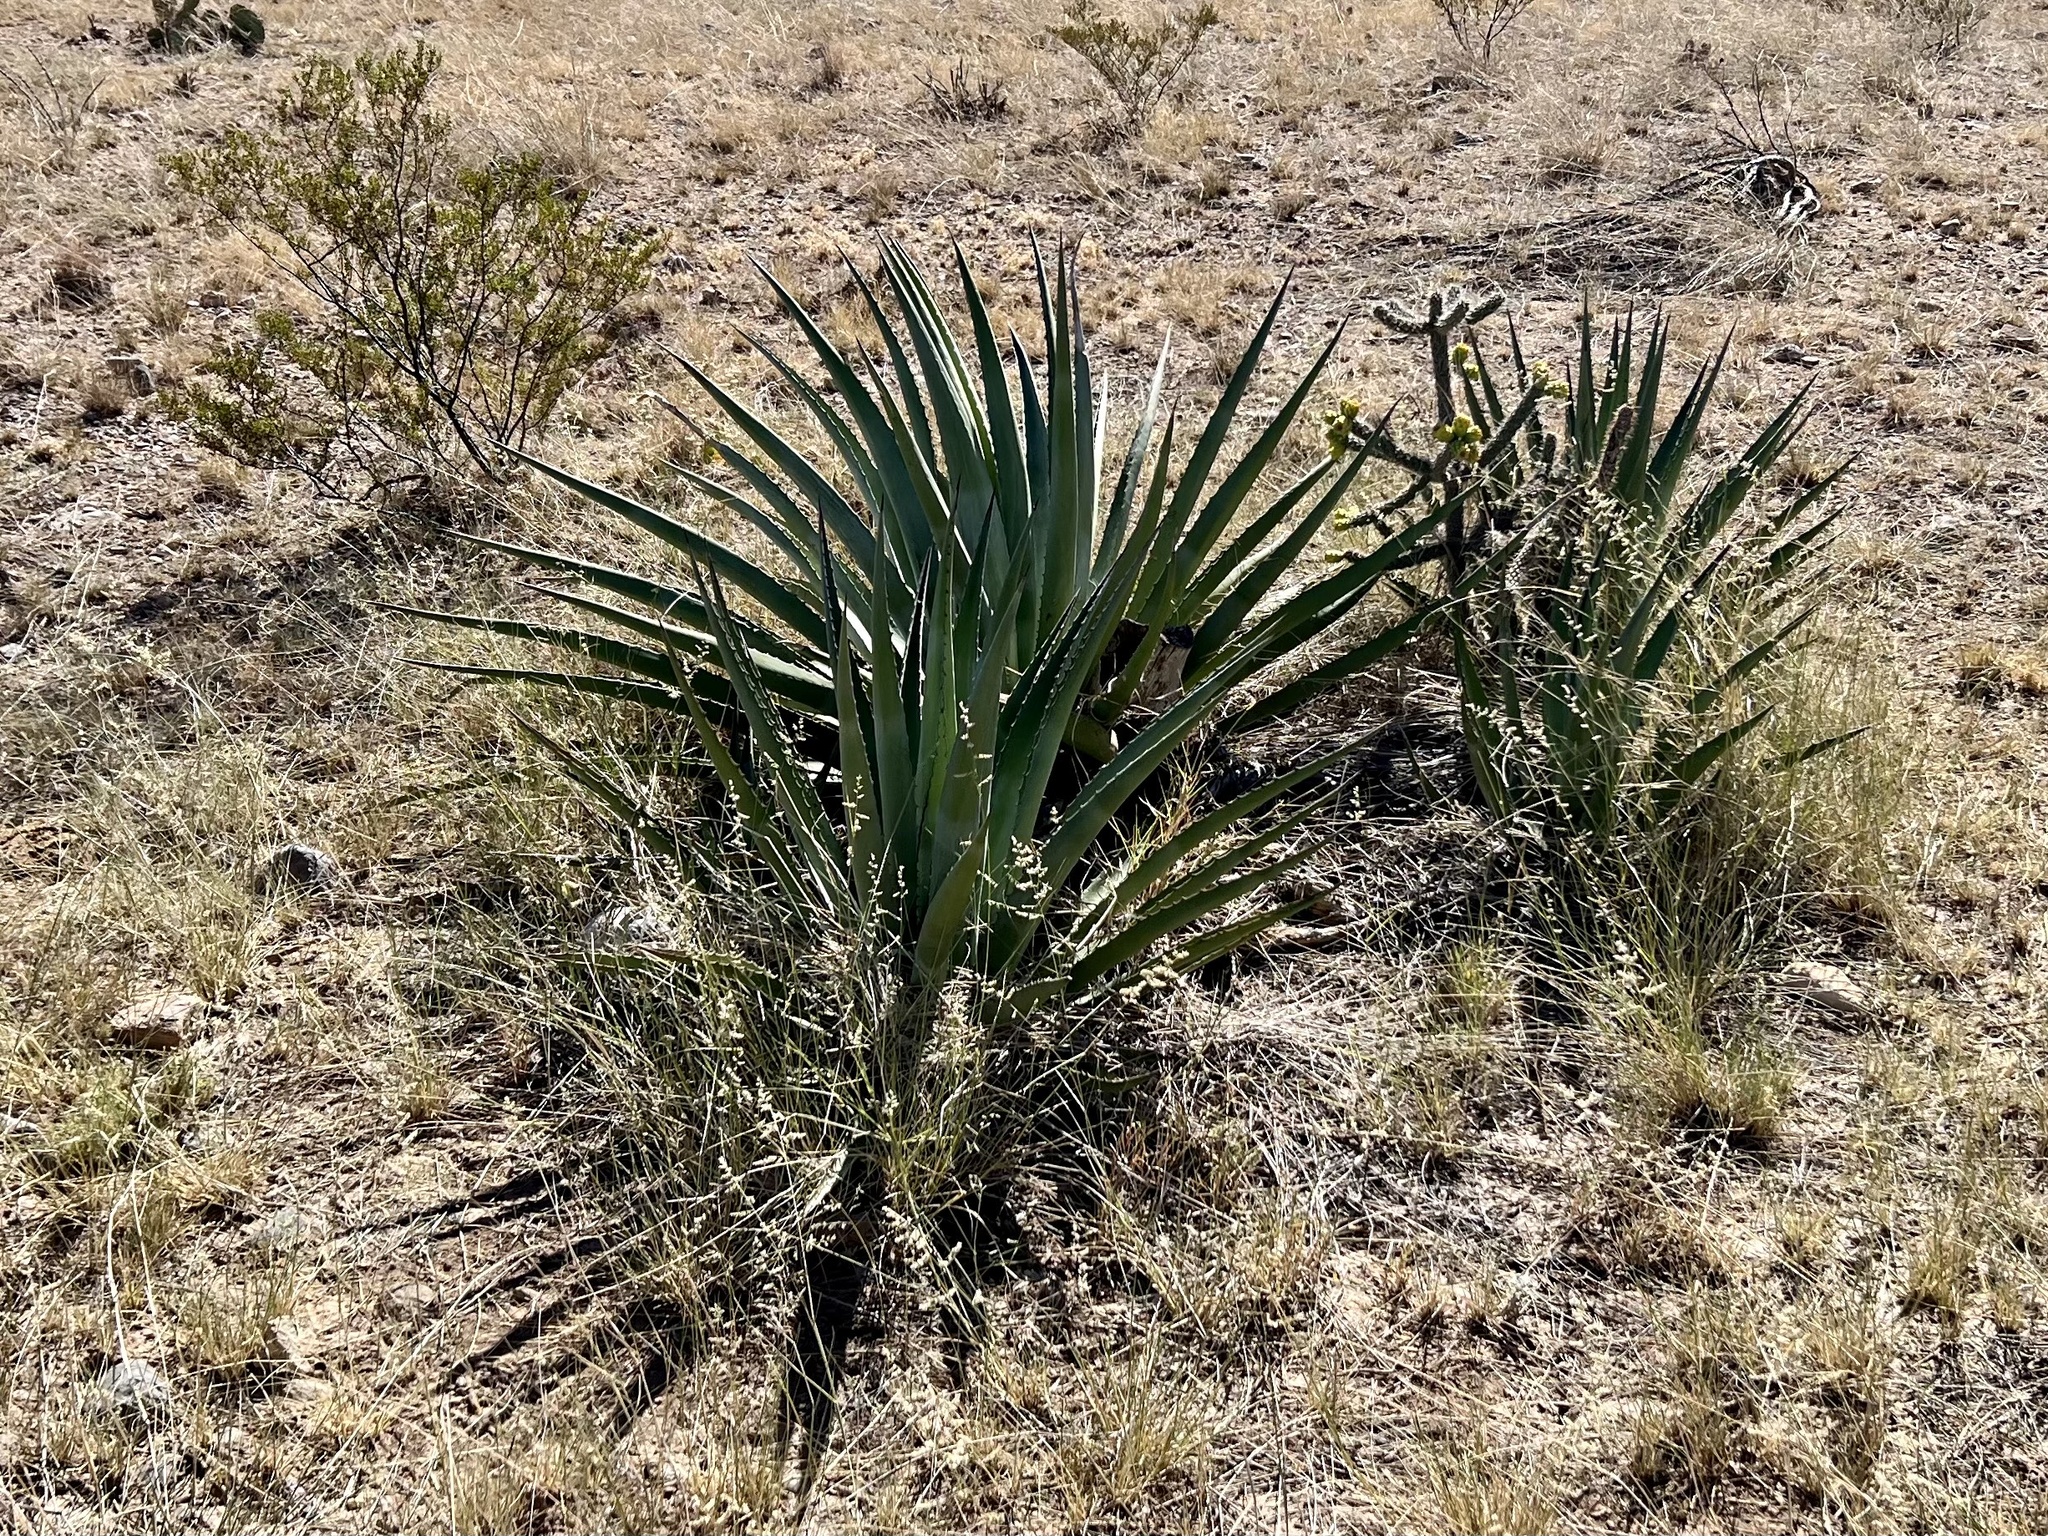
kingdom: Plantae
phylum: Tracheophyta
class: Liliopsida
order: Asparagales
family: Asparagaceae
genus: Agave
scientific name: Agave palmeri
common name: Palmer agave
